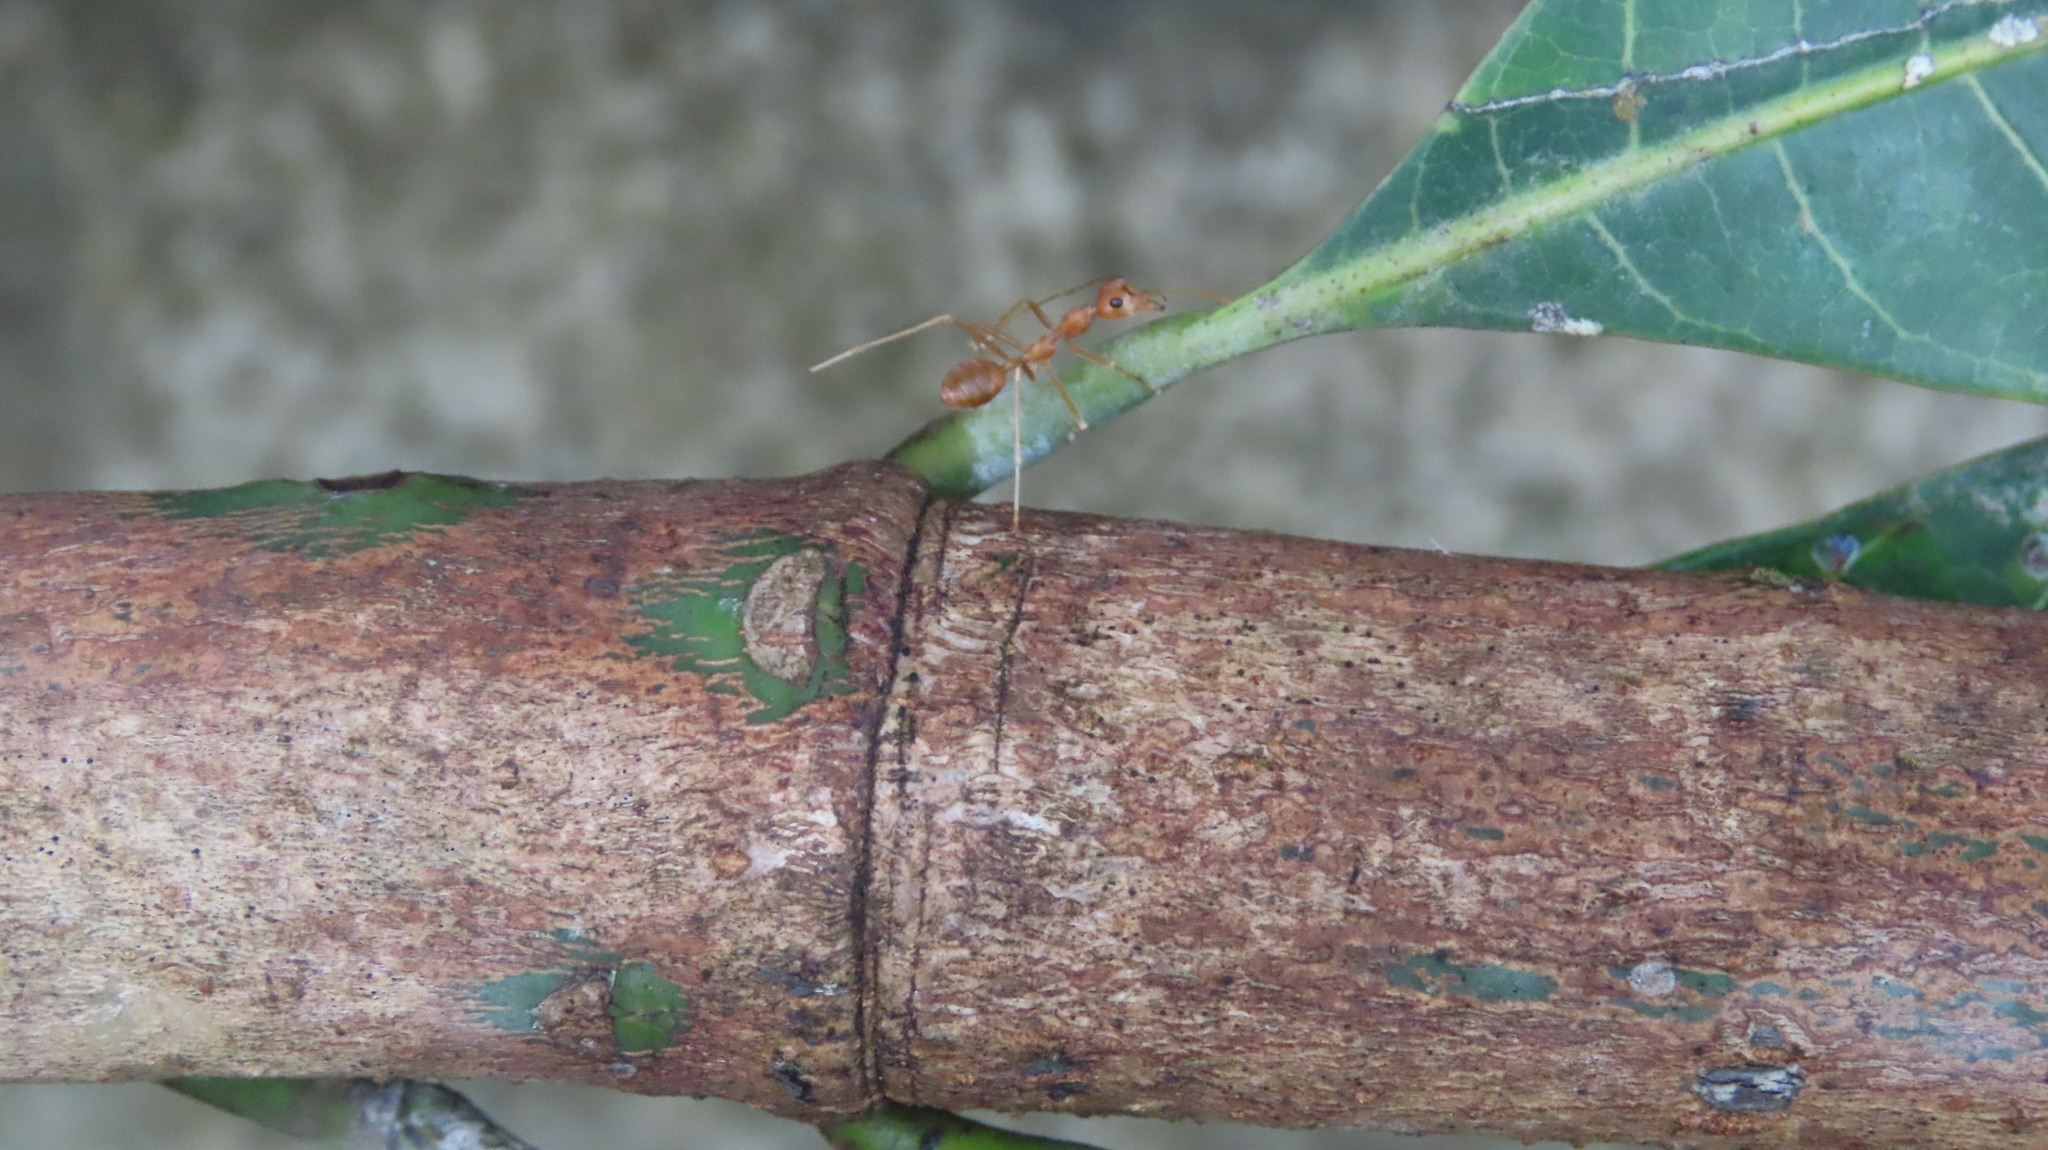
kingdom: Animalia
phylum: Arthropoda
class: Insecta
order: Hymenoptera
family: Formicidae
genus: Oecophylla
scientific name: Oecophylla smaragdina
